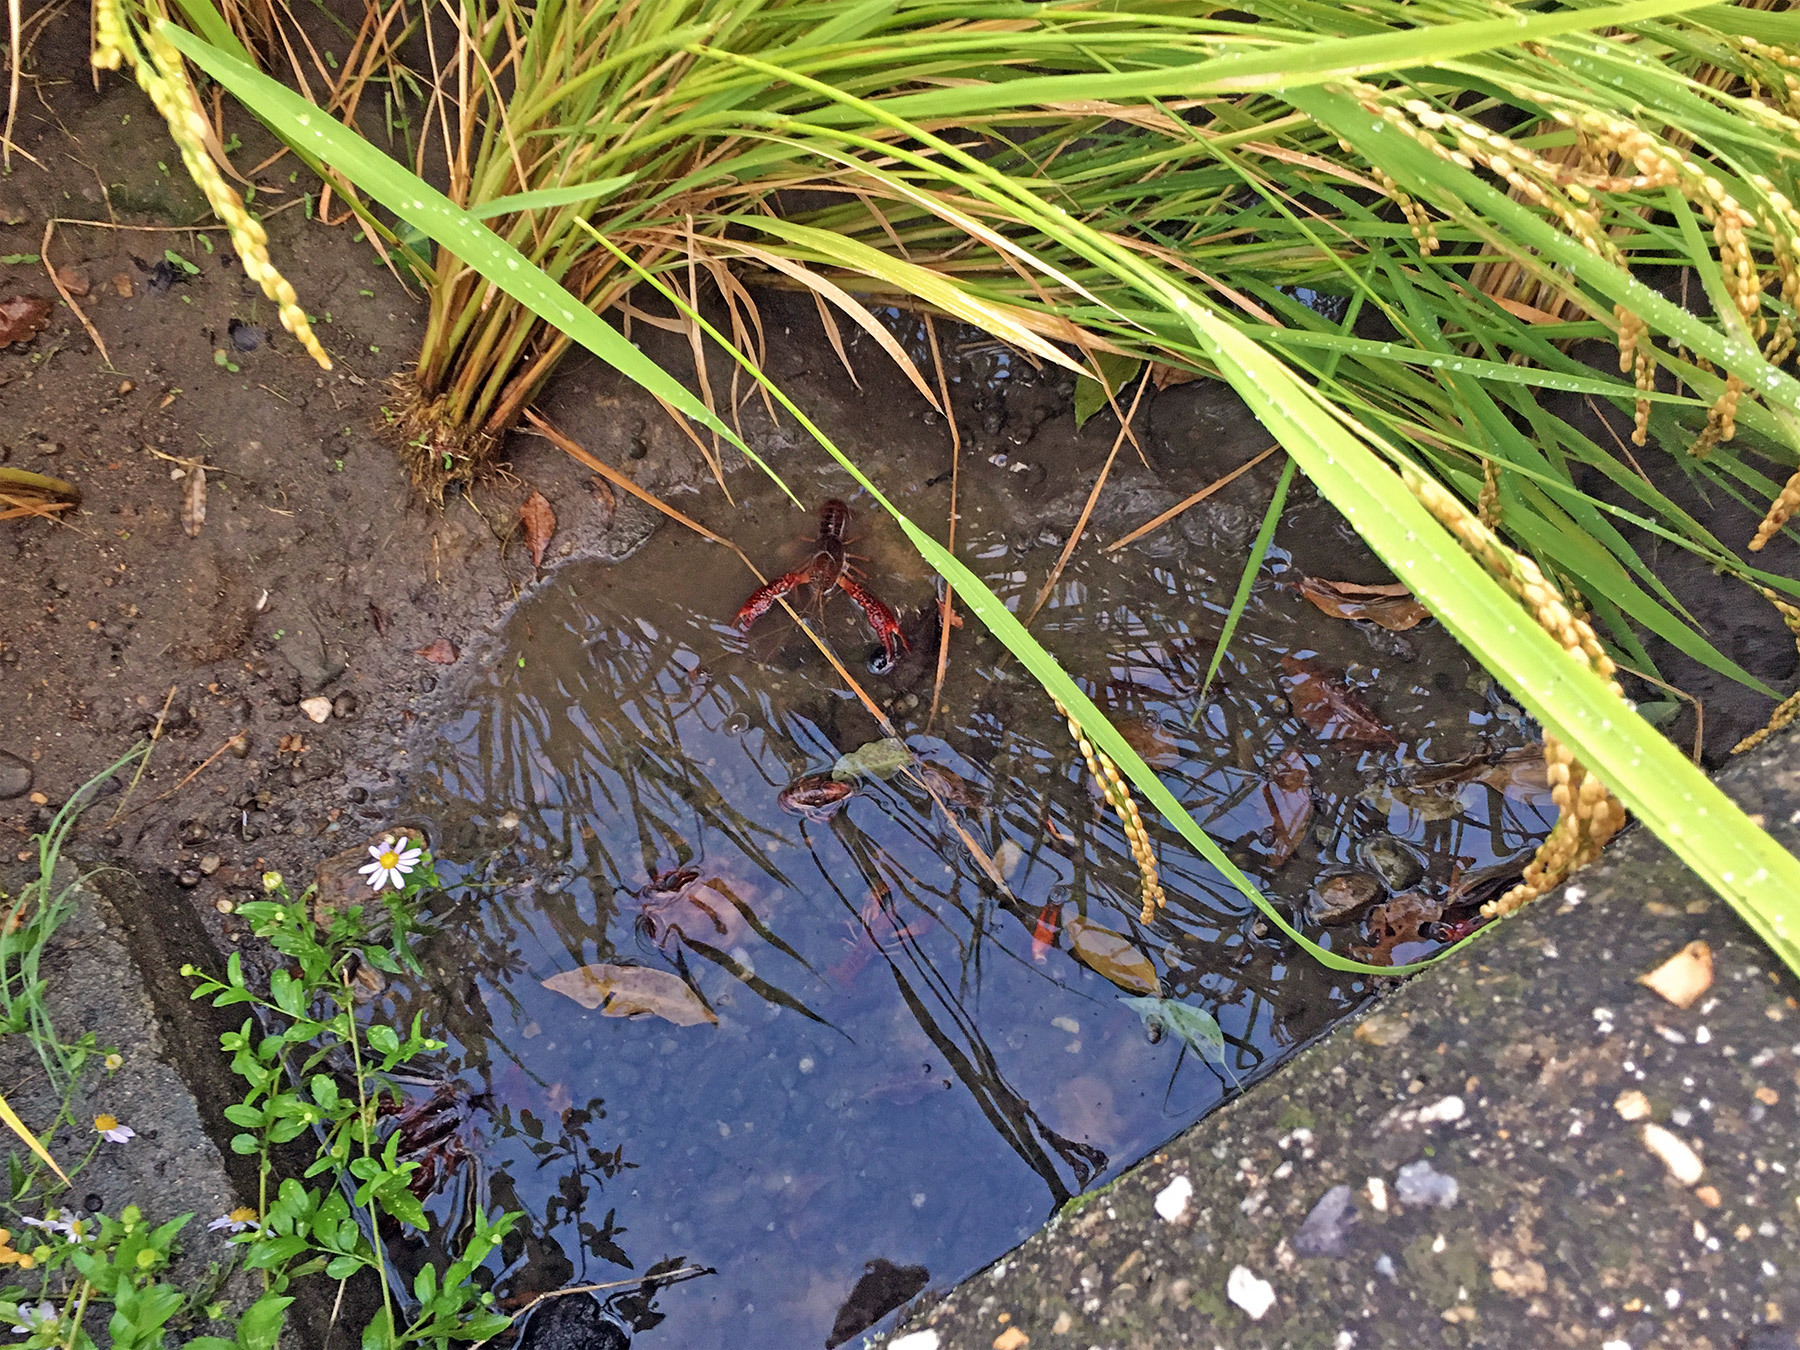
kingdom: Animalia
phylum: Arthropoda
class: Malacostraca
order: Decapoda
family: Cambaridae
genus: Procambarus
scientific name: Procambarus clarkii
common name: Red swamp crayfish
